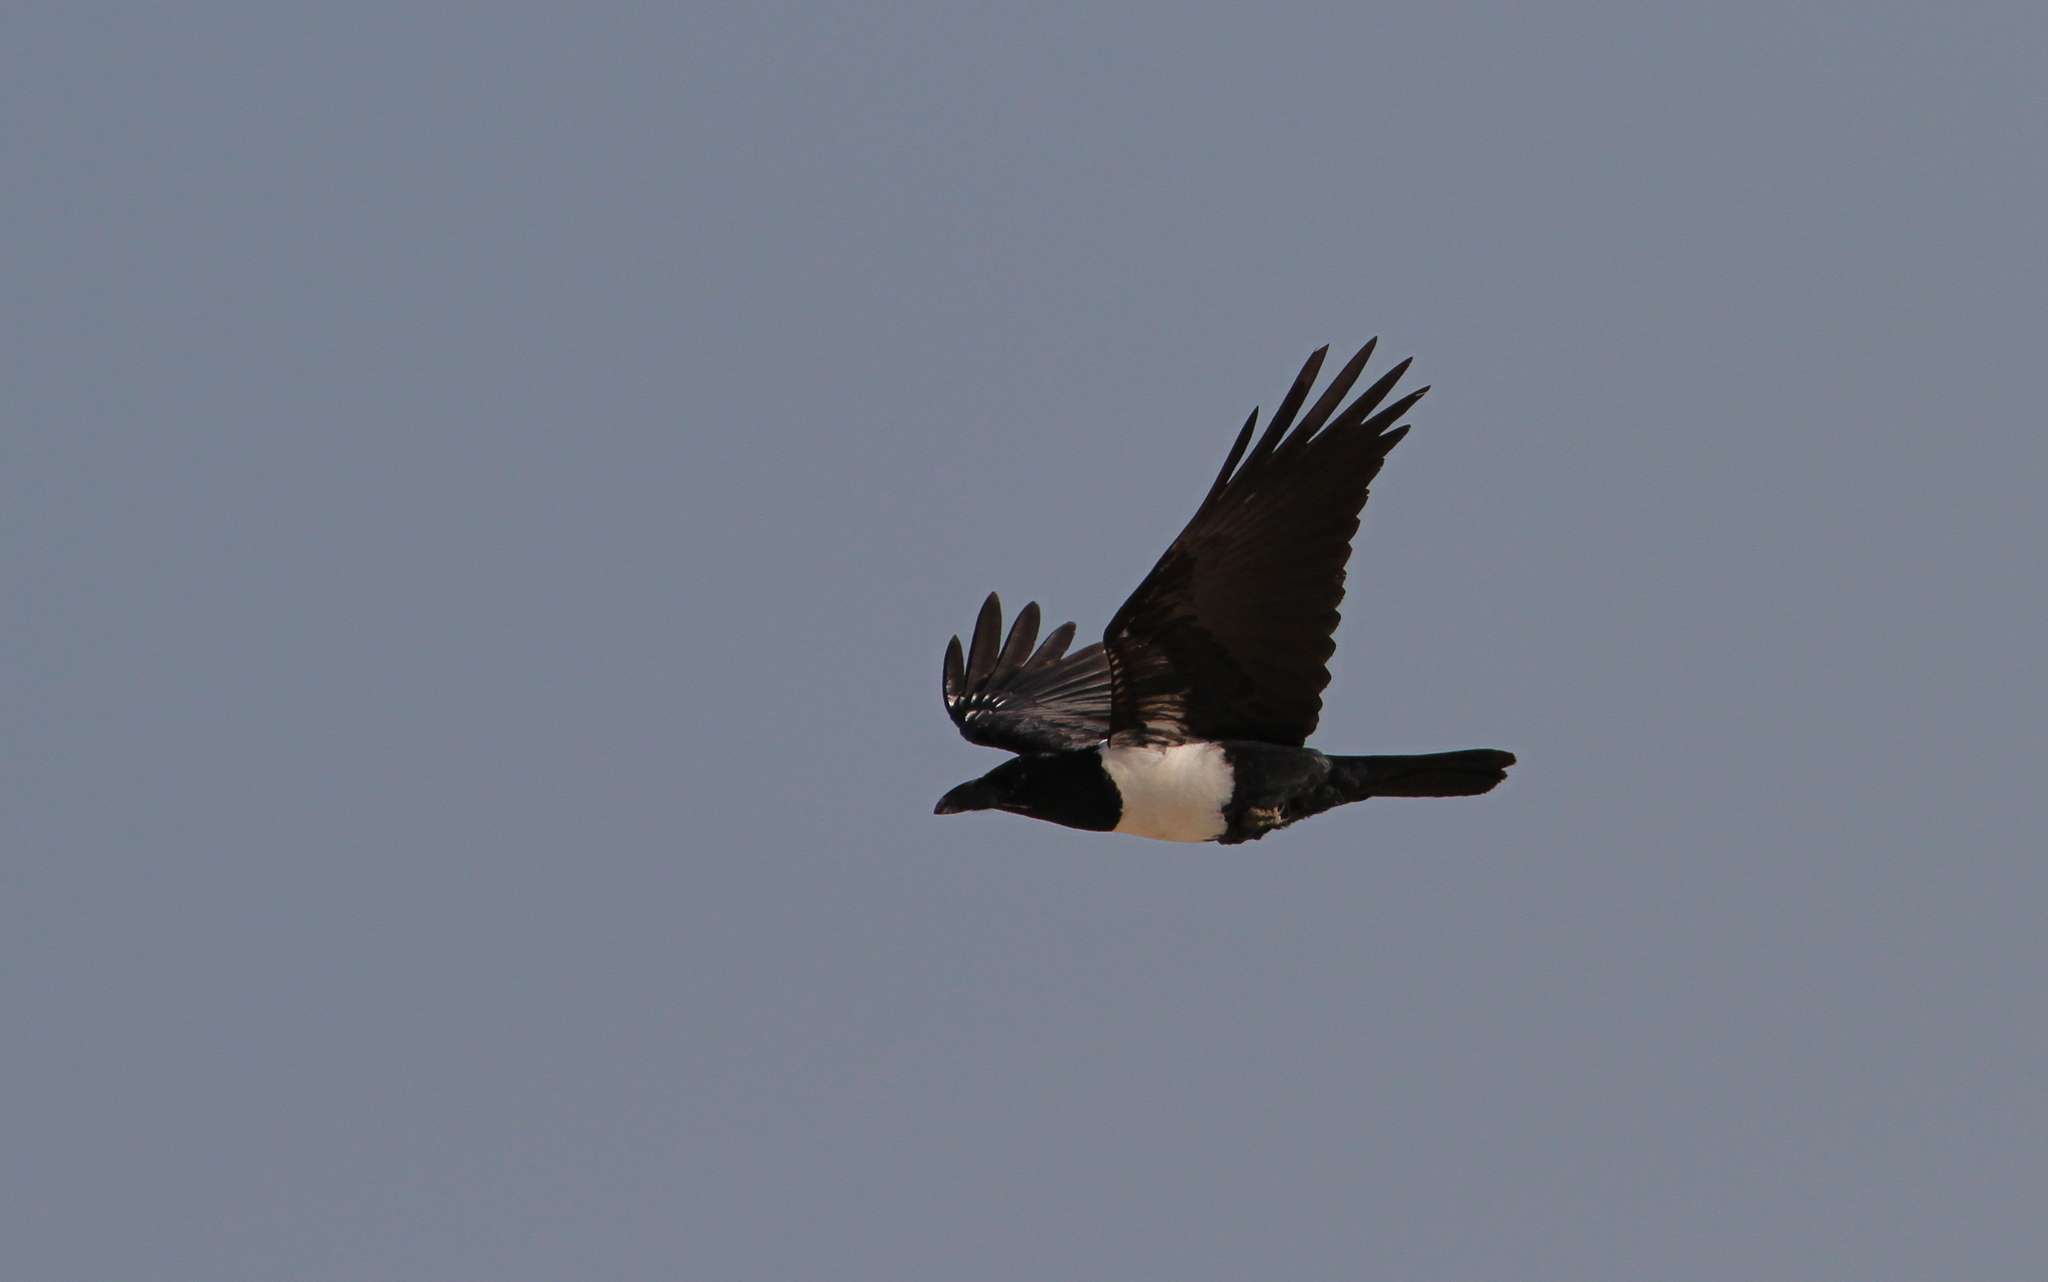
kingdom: Animalia
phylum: Chordata
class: Aves
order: Passeriformes
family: Corvidae
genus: Corvus
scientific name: Corvus albus
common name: Pied crow
